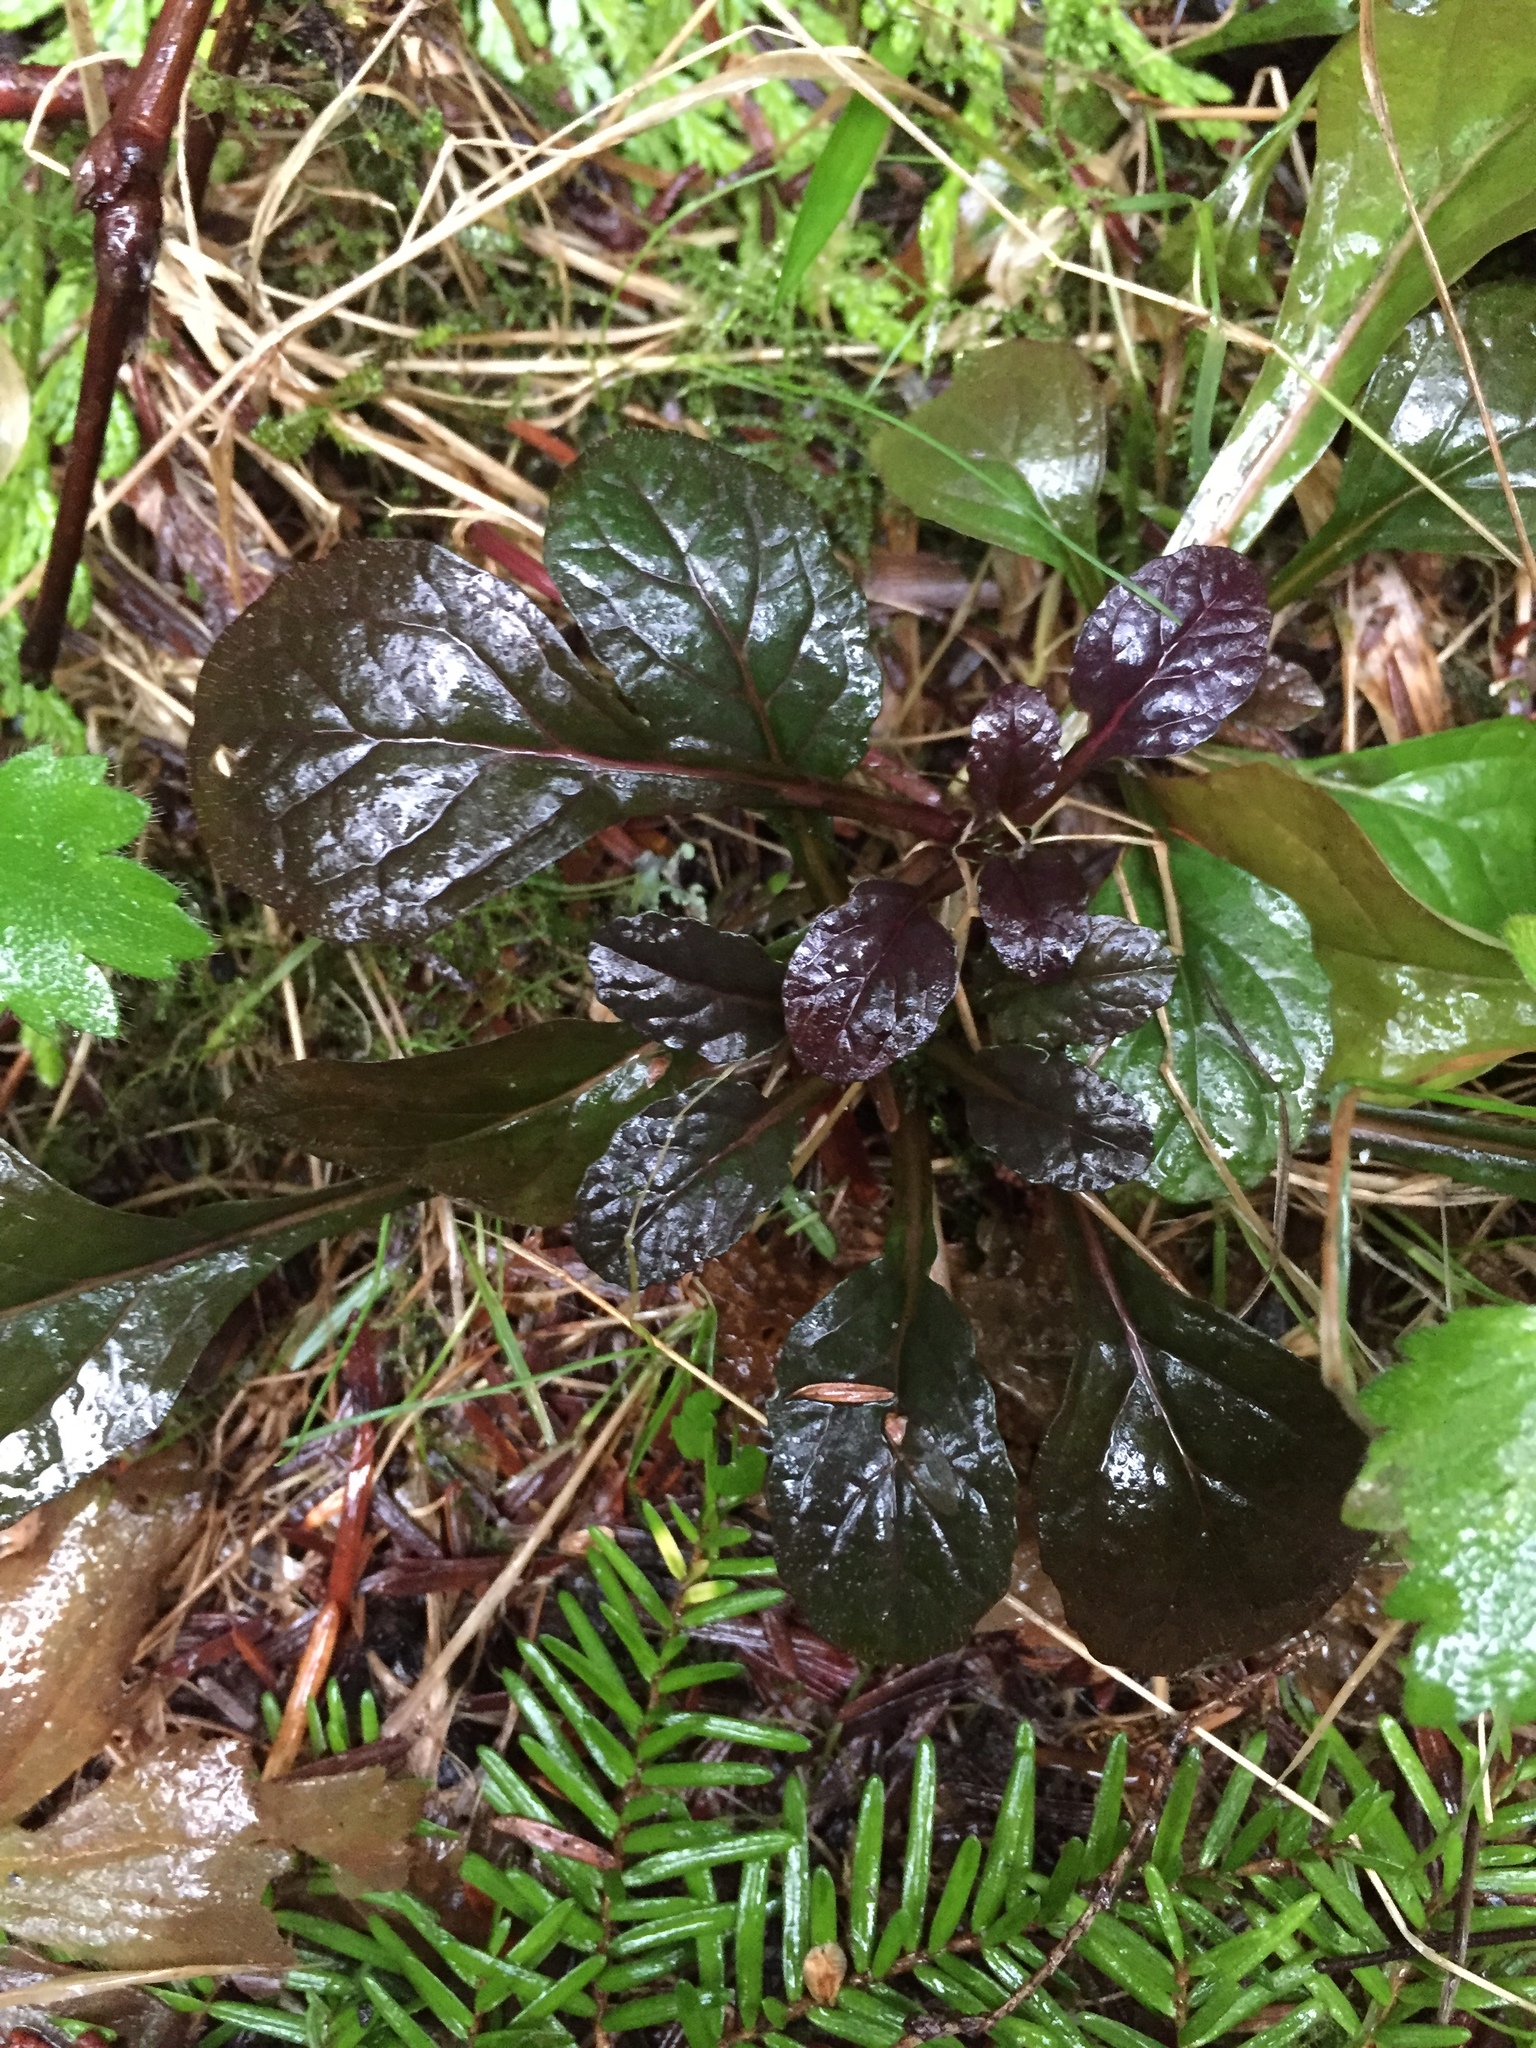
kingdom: Plantae
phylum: Tracheophyta
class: Magnoliopsida
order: Lamiales
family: Lamiaceae
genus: Ajuga
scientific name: Ajuga reptans
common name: Bugle
